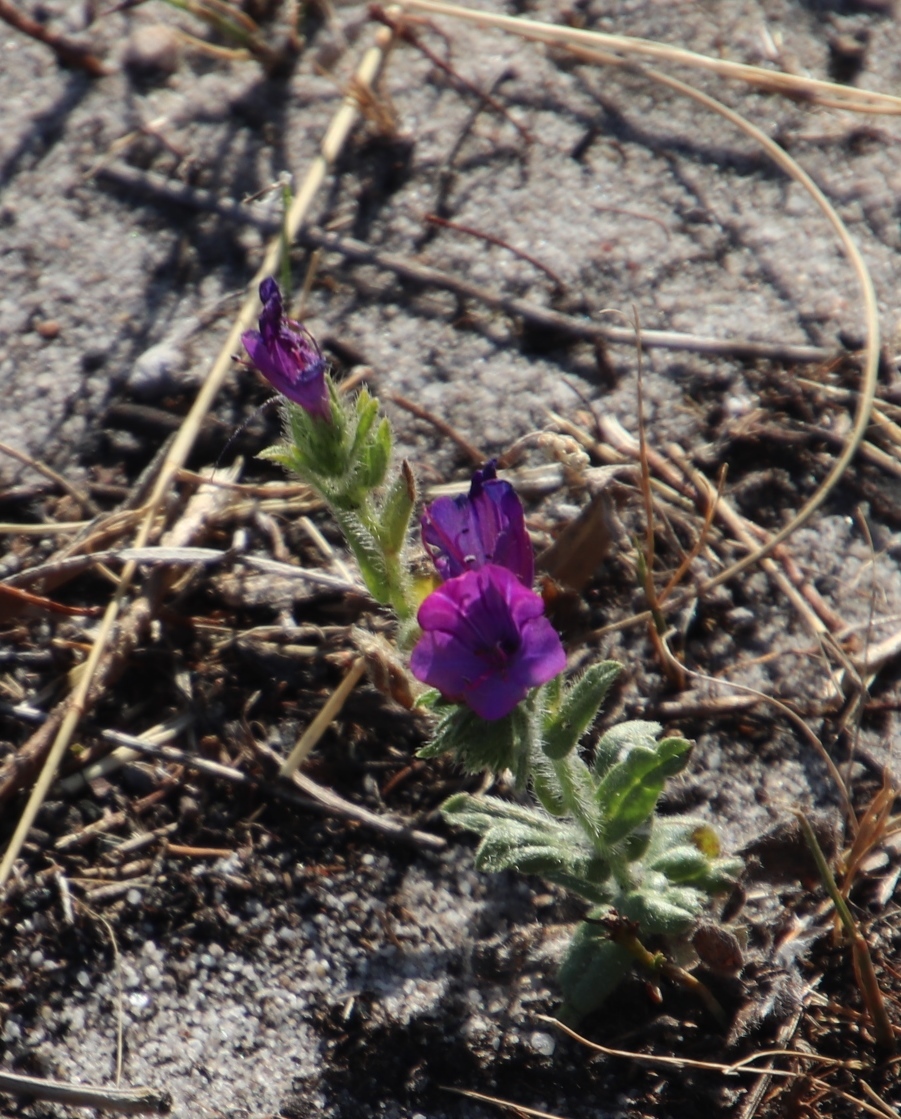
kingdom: Plantae
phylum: Tracheophyta
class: Magnoliopsida
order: Boraginales
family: Boraginaceae
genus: Echium
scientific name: Echium plantagineum
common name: Purple viper's-bugloss
